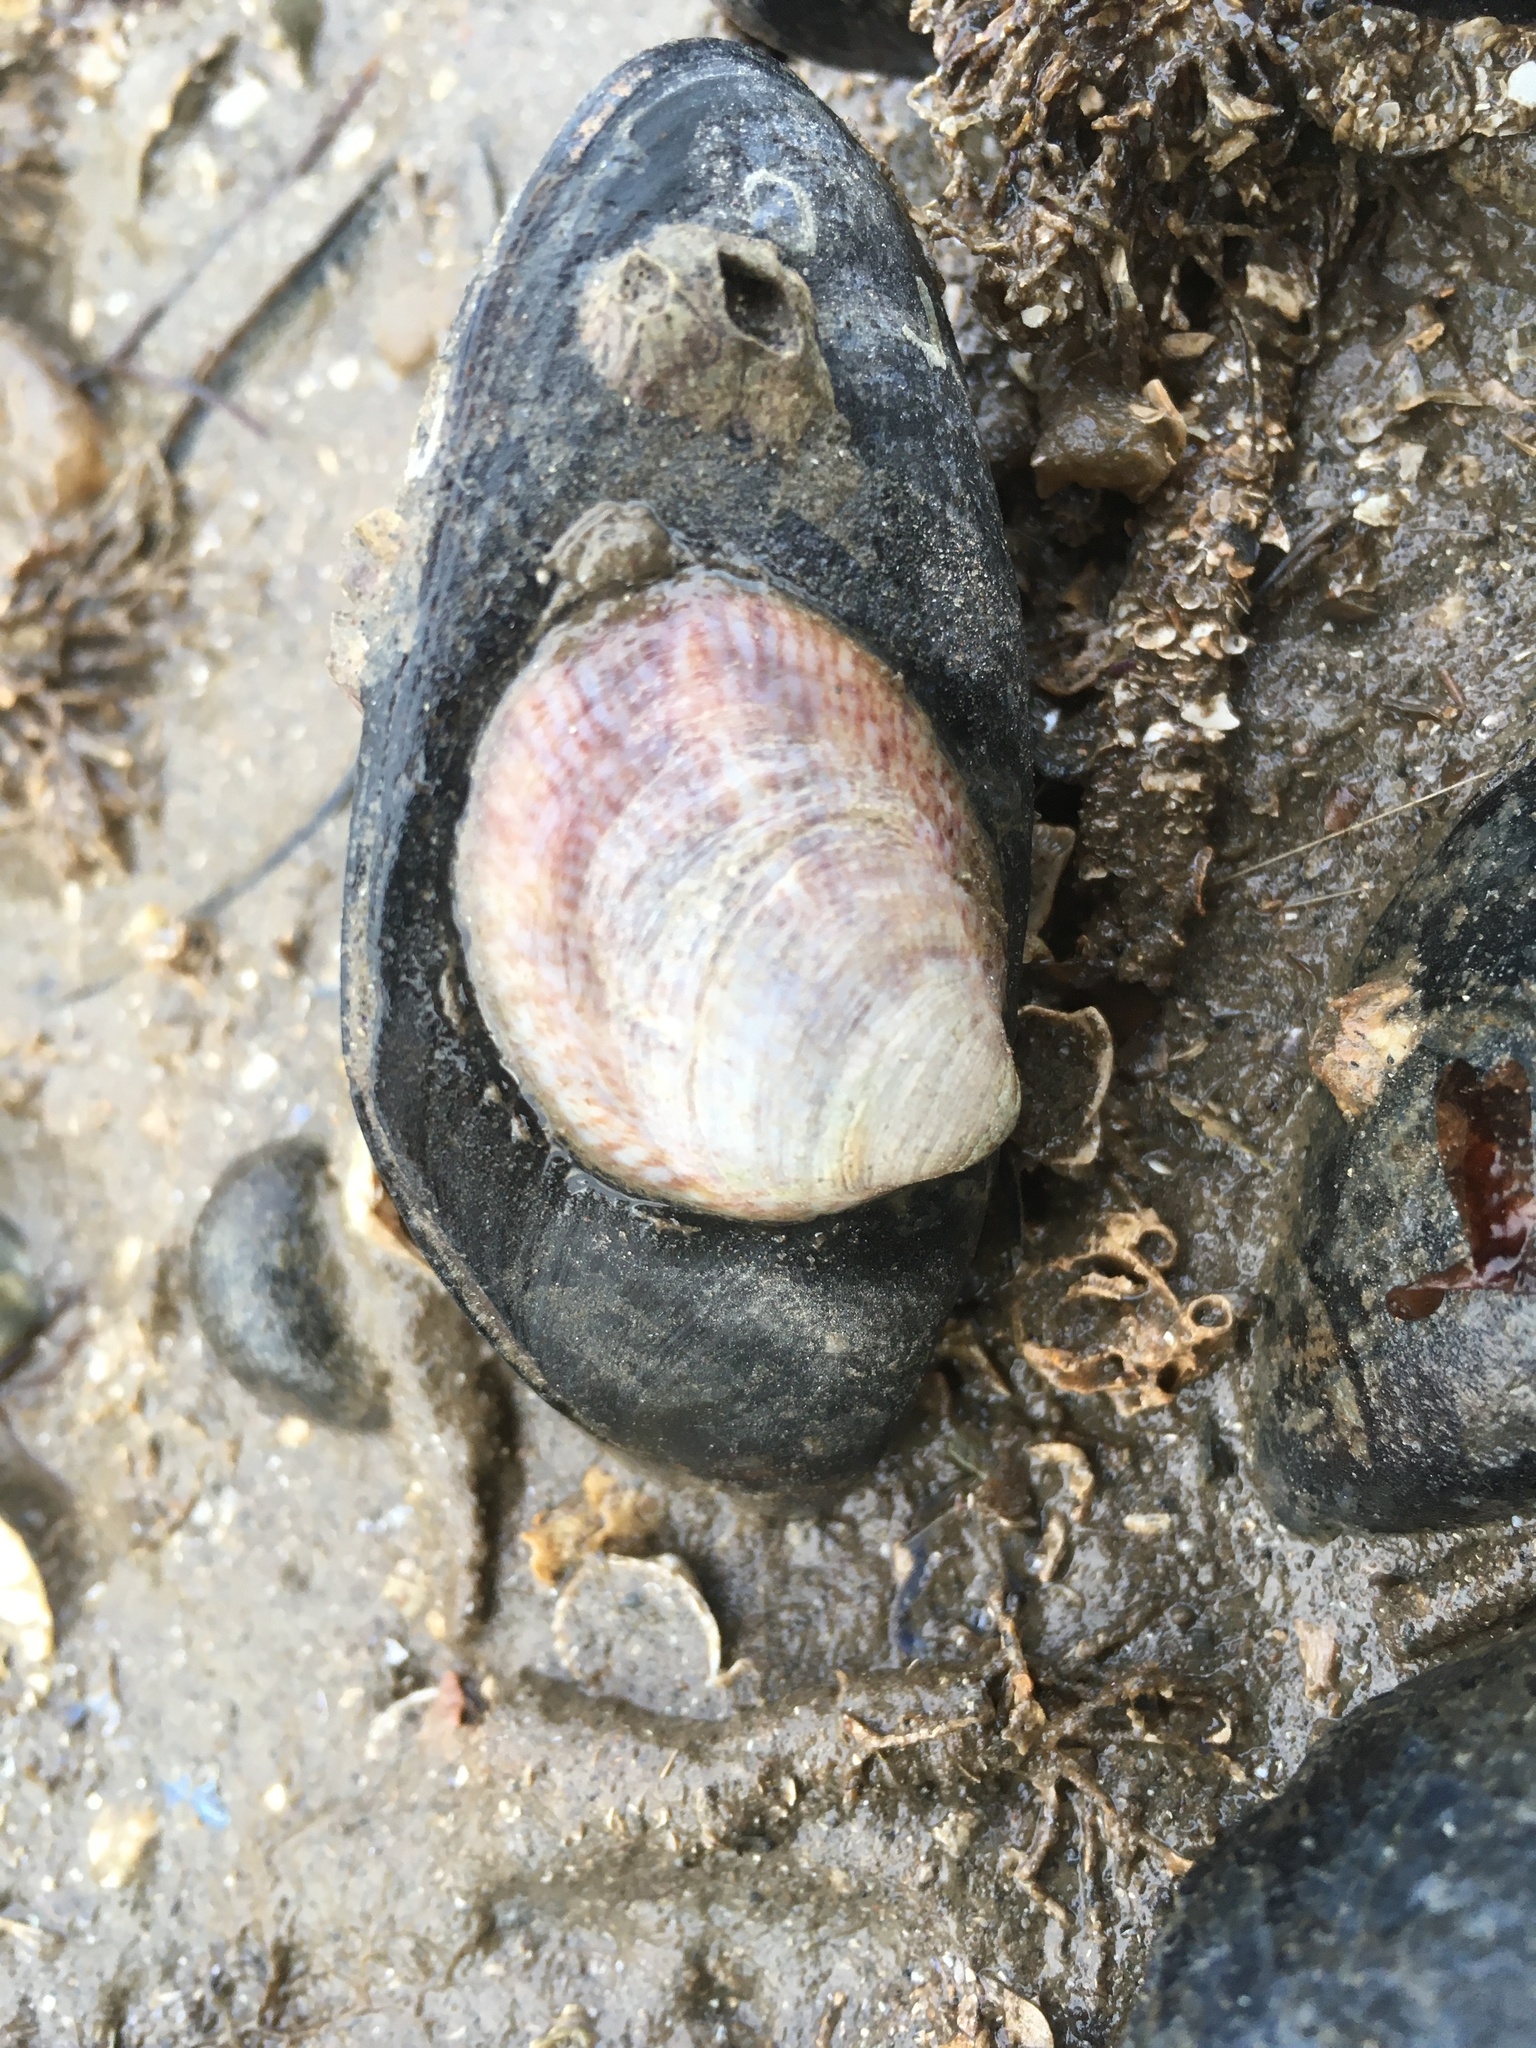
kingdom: Animalia
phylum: Mollusca
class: Gastropoda
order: Littorinimorpha
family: Calyptraeidae
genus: Crepidula
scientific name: Crepidula fornicata
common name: Slipper limpet
